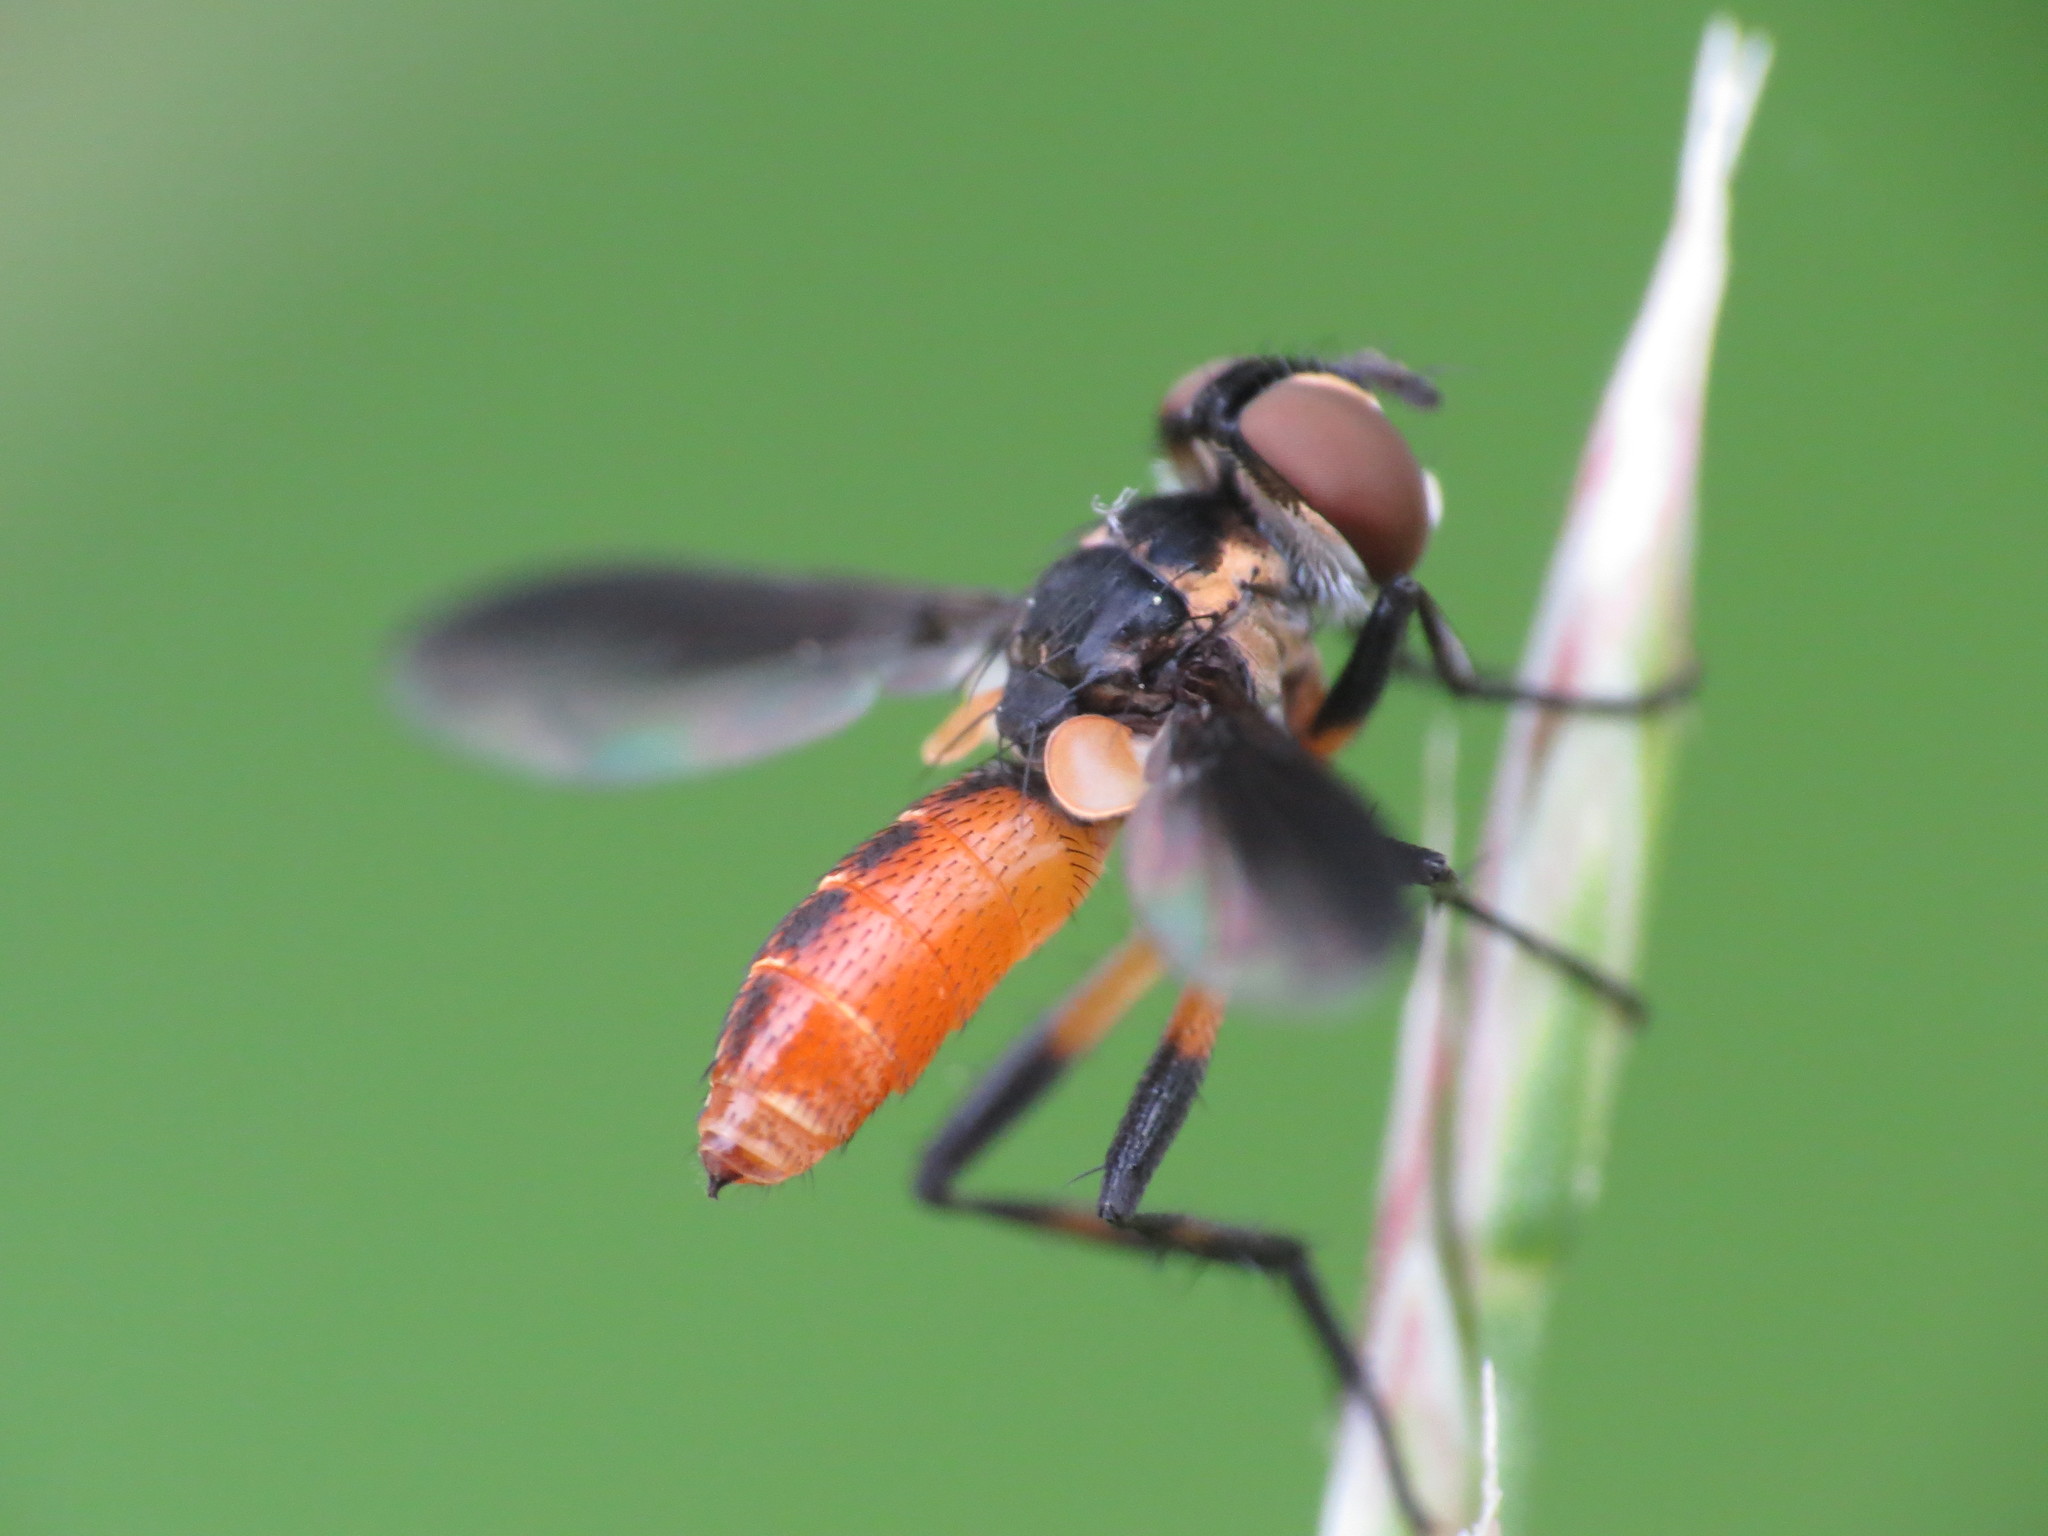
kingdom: Animalia
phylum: Arthropoda
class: Insecta
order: Diptera
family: Tachinidae
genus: Trichopoda
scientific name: Trichopoda pennipes
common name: Tachinid fly
